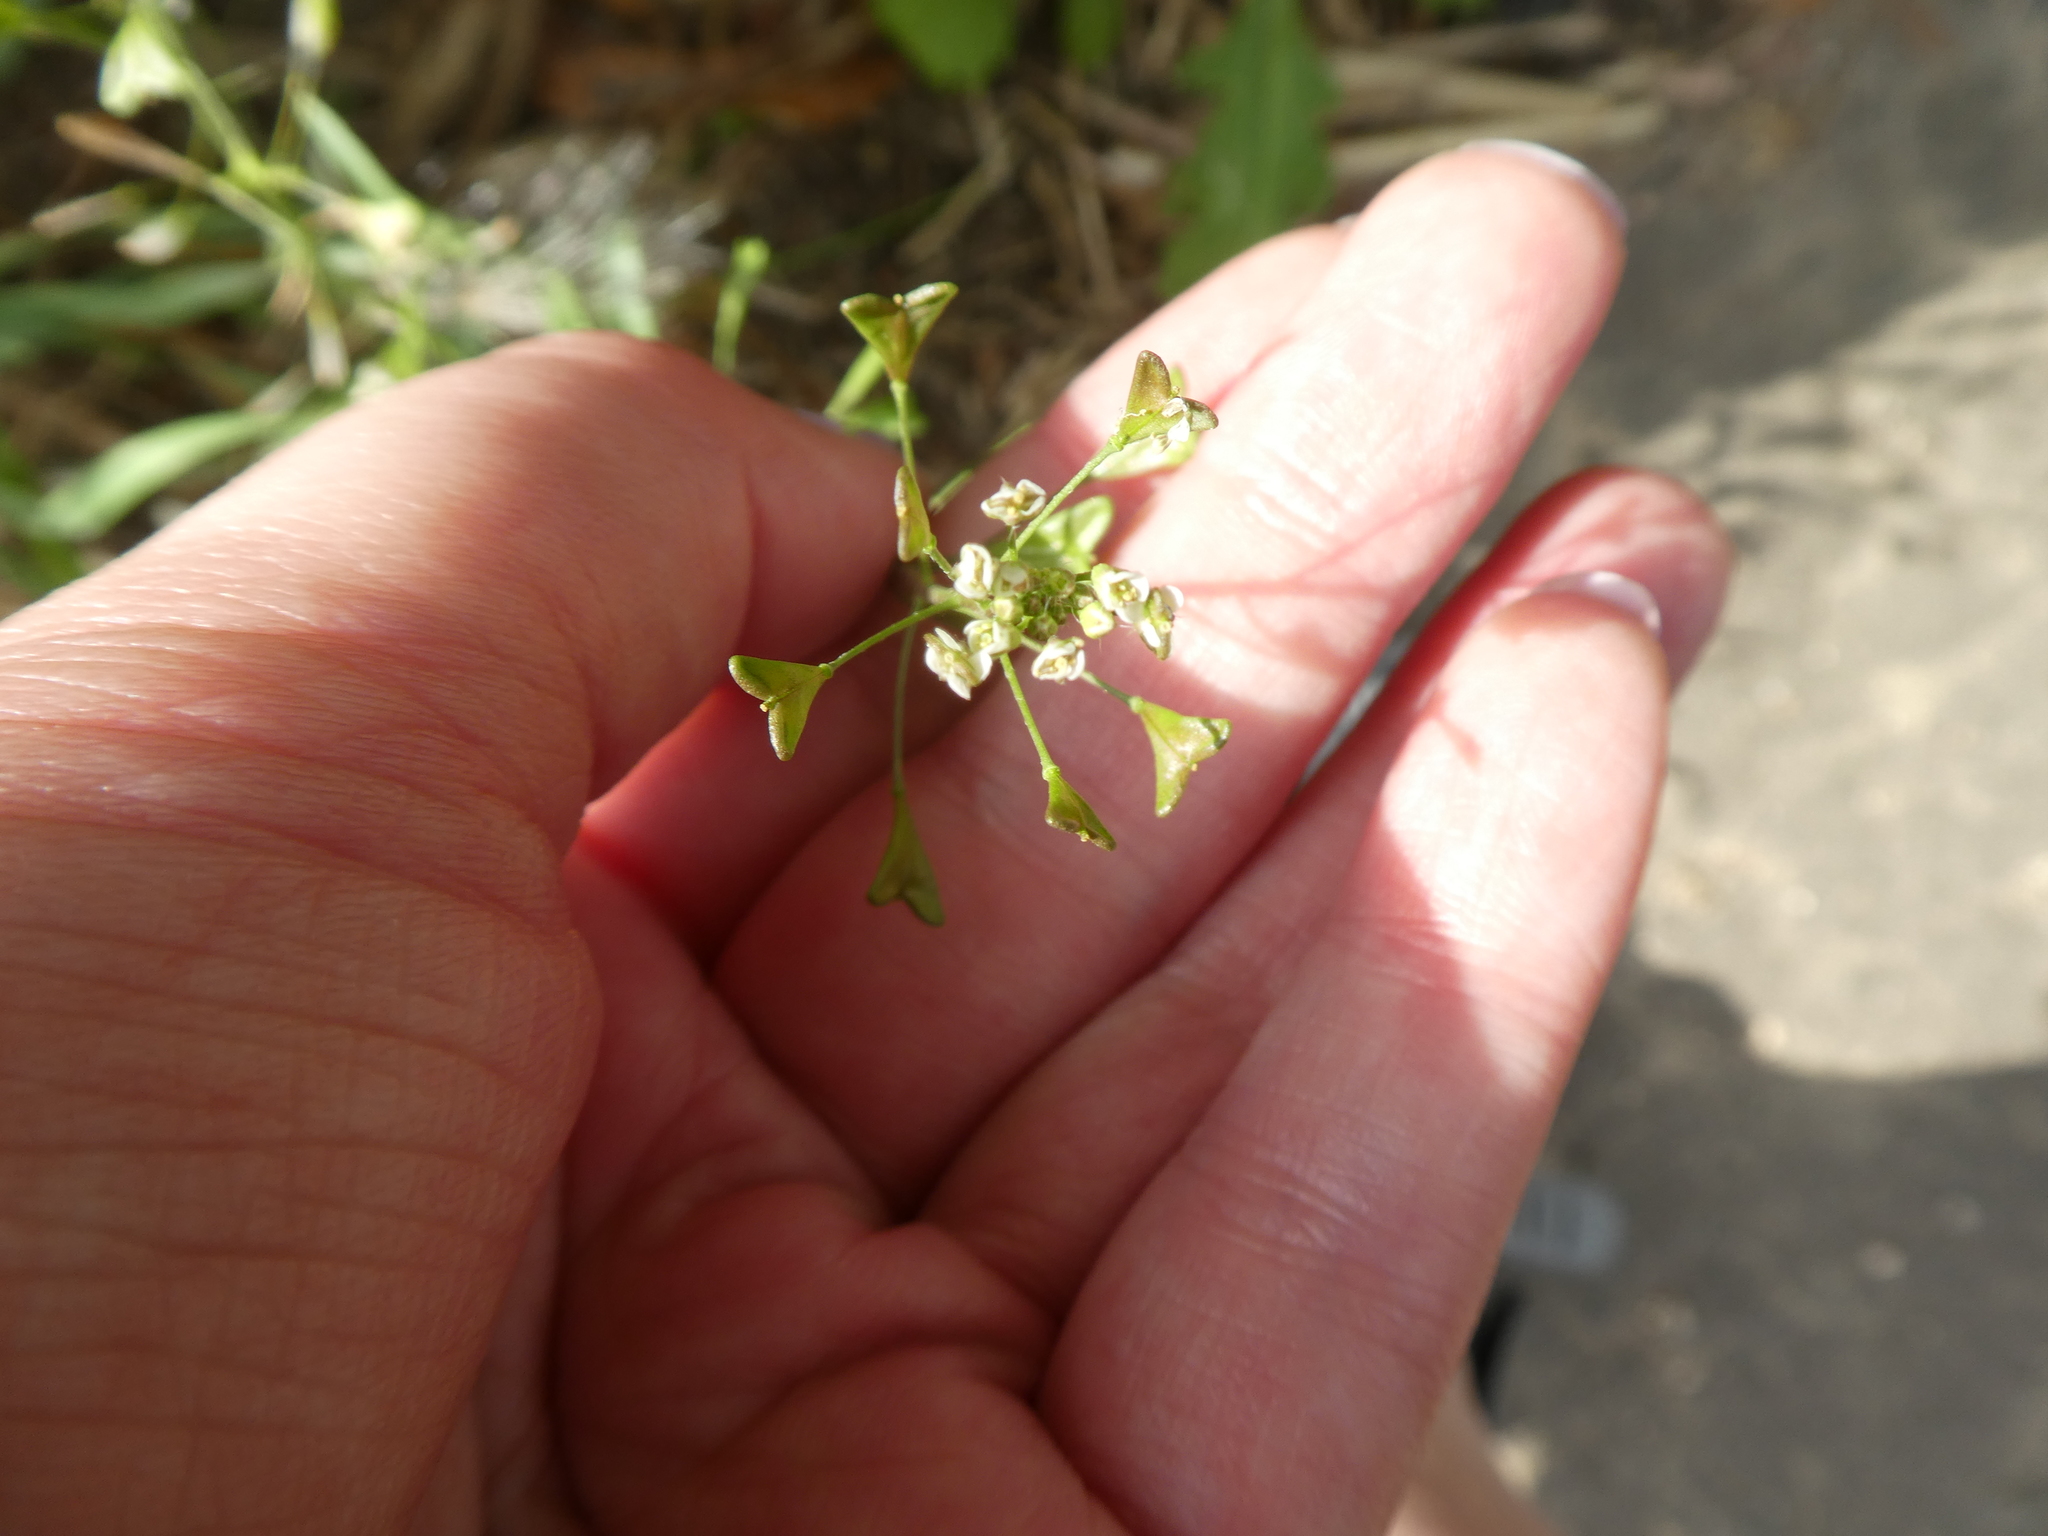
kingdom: Plantae
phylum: Tracheophyta
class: Magnoliopsida
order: Brassicales
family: Brassicaceae
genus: Capsella
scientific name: Capsella bursa-pastoris
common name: Shepherd's purse
